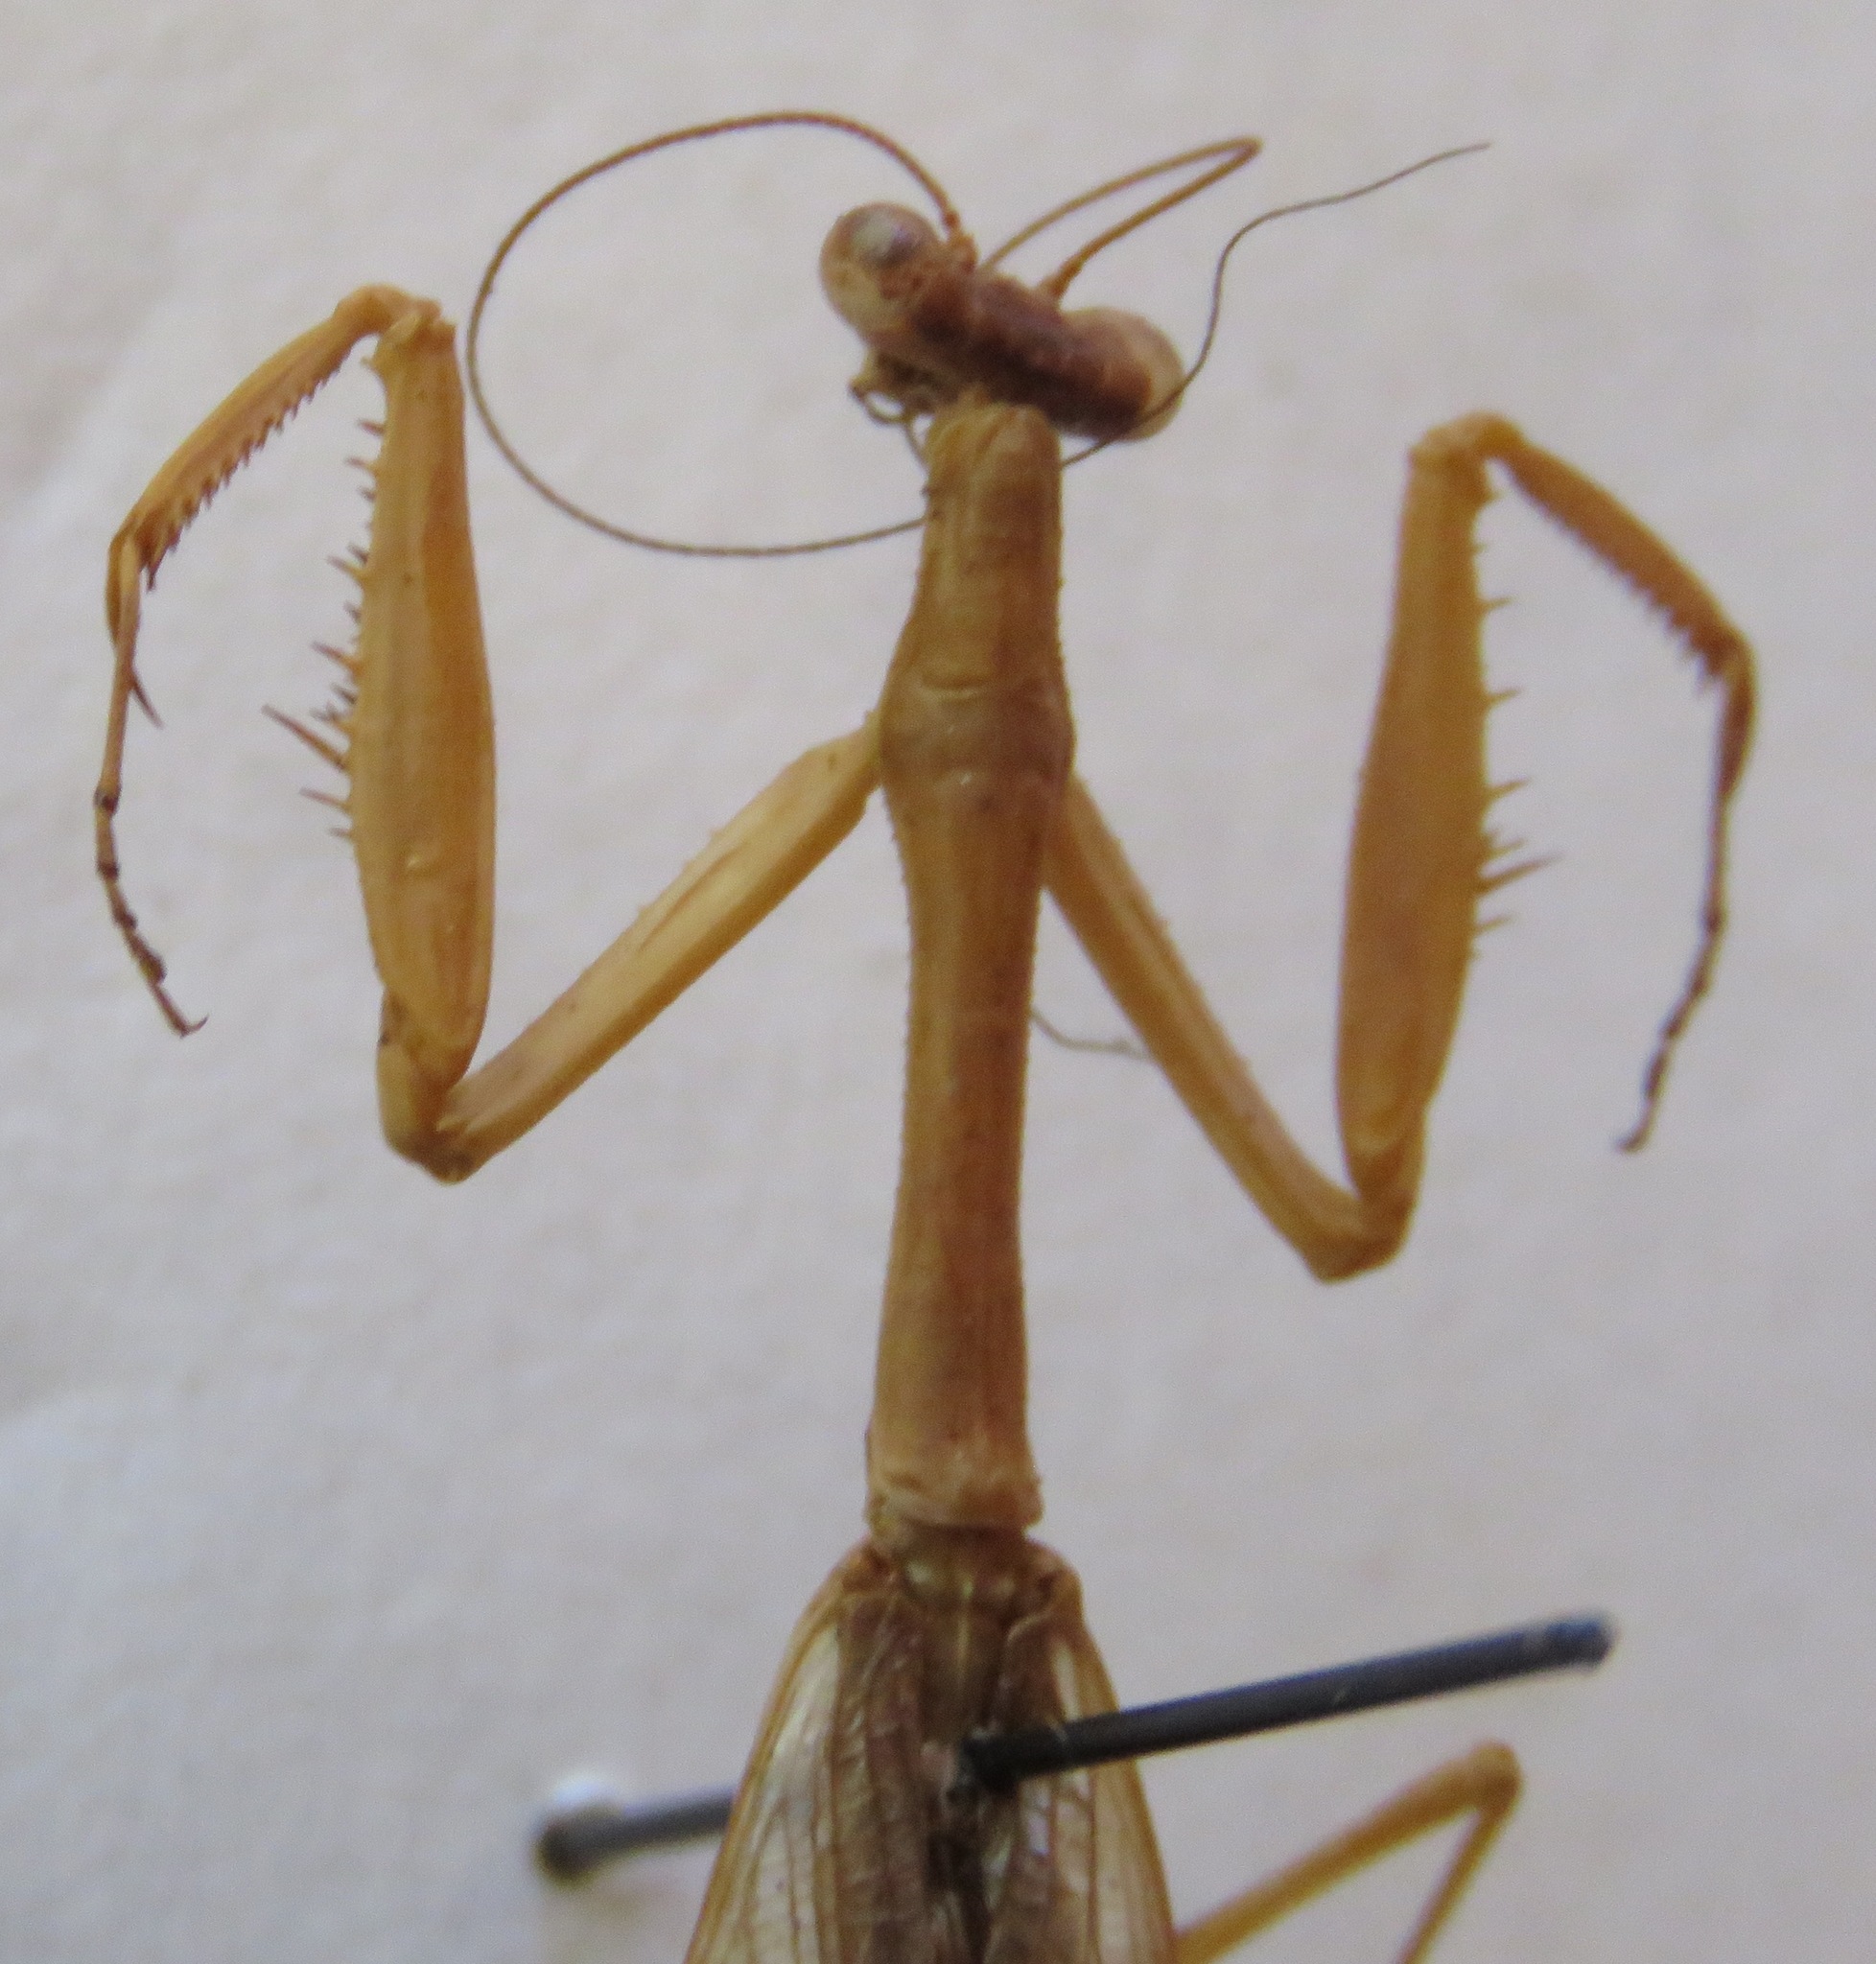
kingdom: Animalia
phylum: Arthropoda
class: Insecta
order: Mantodea
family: Mantidae
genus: Stagmomantis
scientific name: Stagmomantis nahua
